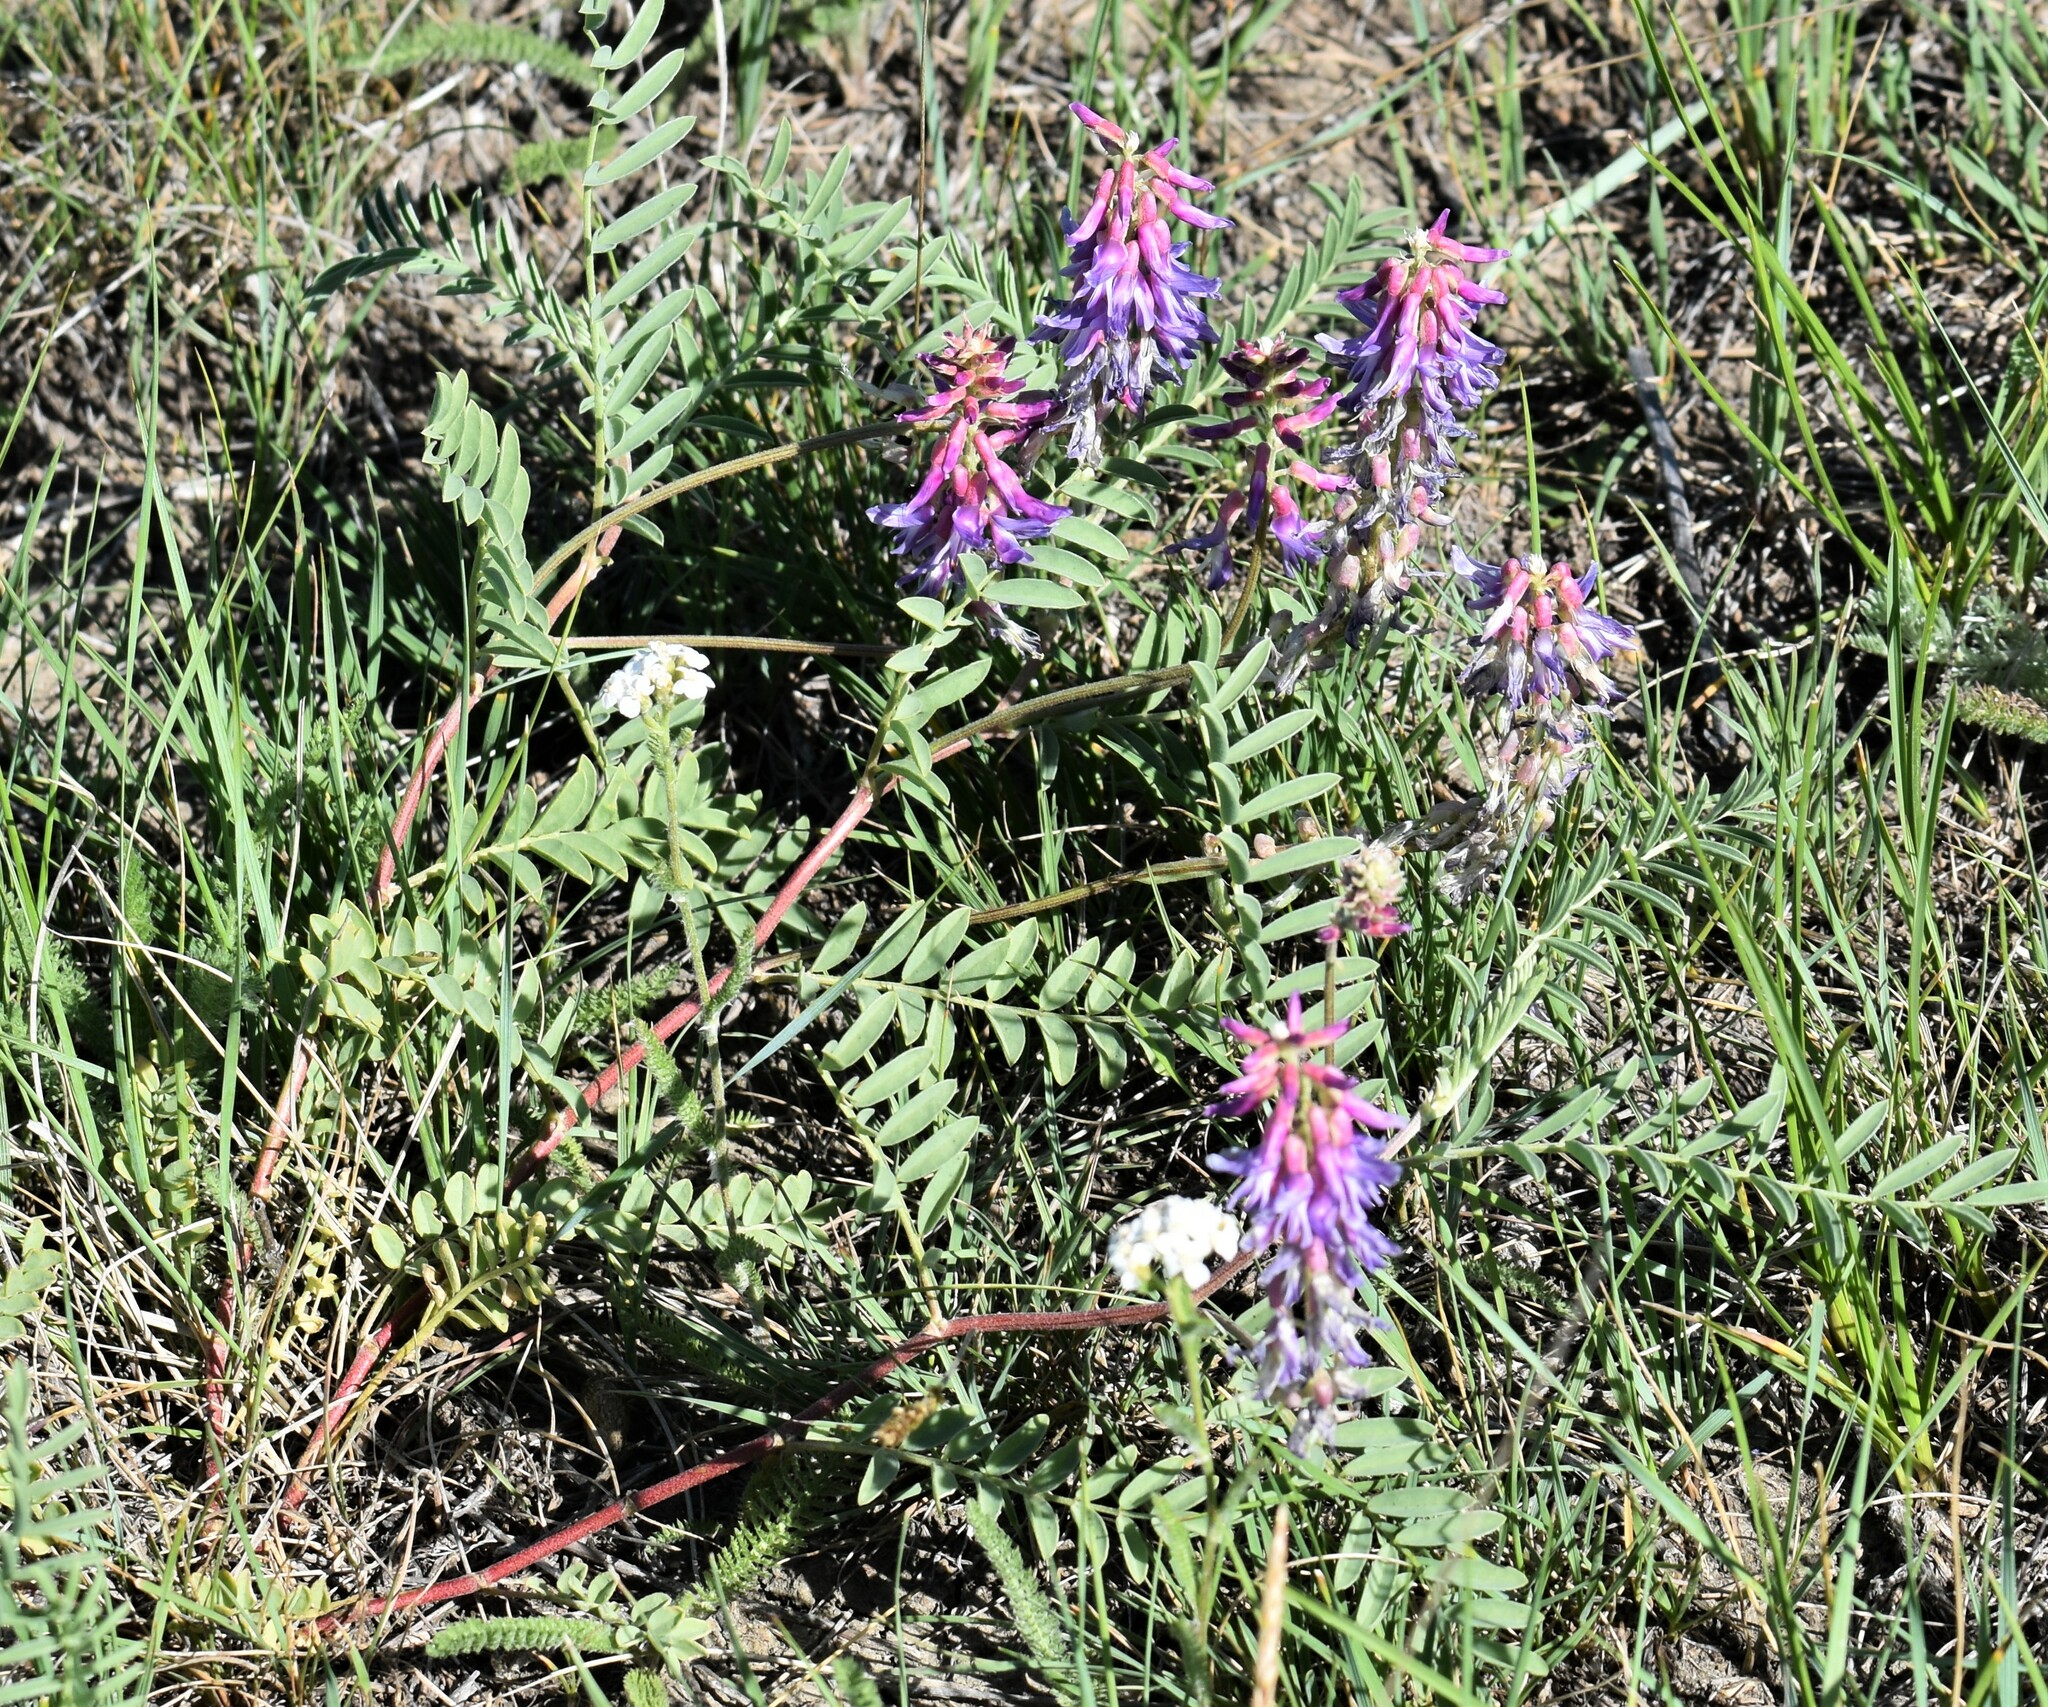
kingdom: Plantae
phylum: Tracheophyta
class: Magnoliopsida
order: Fabales
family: Fabaceae
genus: Astragalus
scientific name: Astragalus bisulcatus
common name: Two-groove milk-vetch
